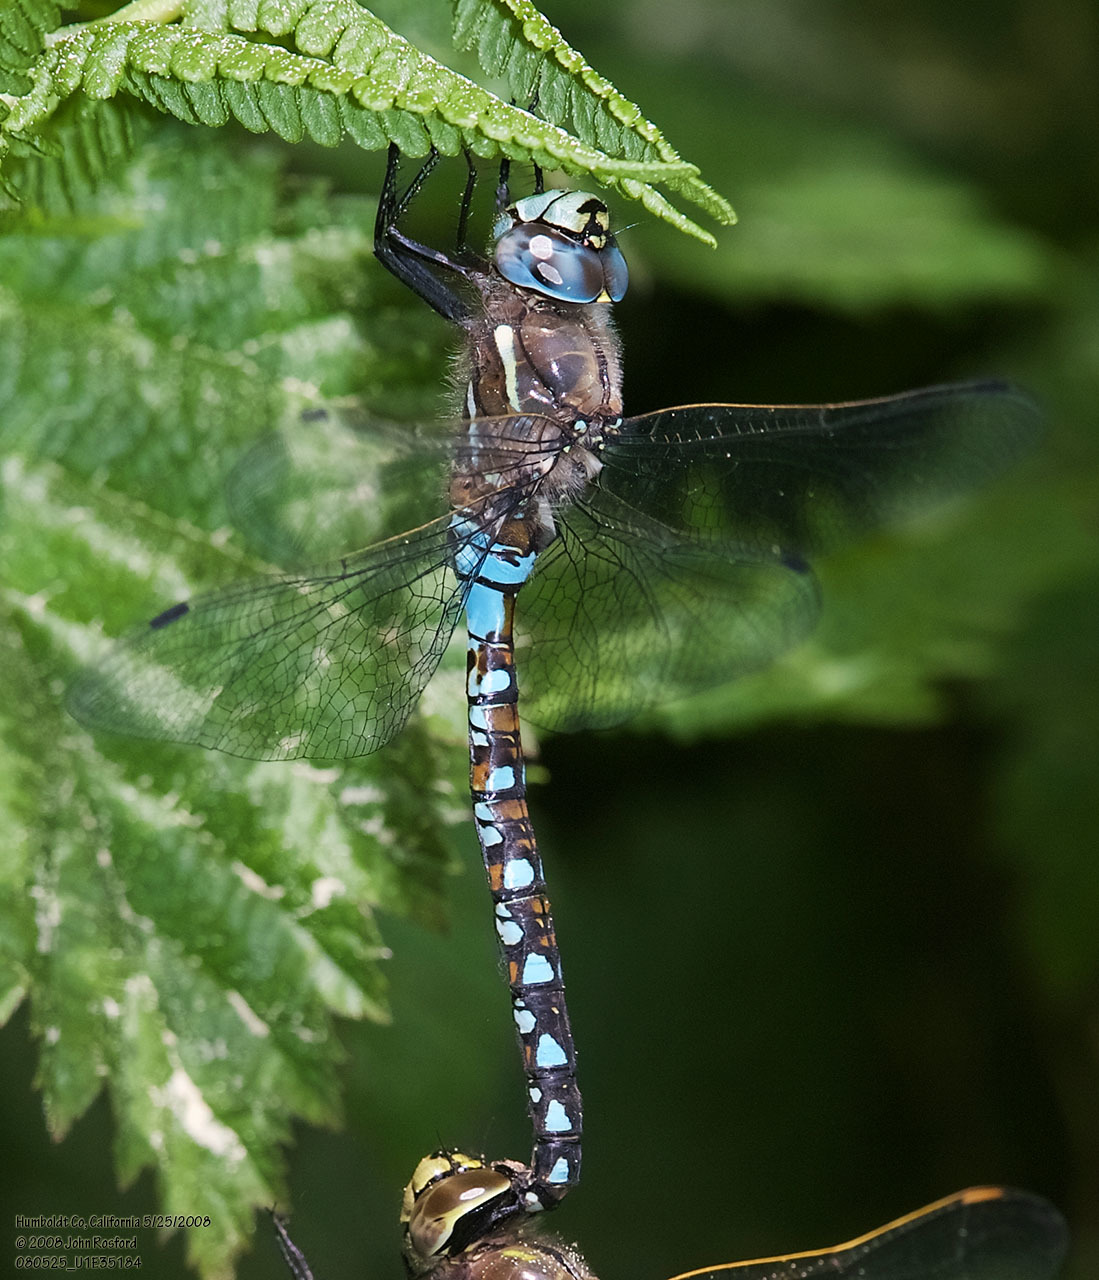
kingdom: Animalia
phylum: Arthropoda
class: Insecta
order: Odonata
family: Aeshnidae
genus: Rhionaeschna
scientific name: Rhionaeschna californica
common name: California darner
